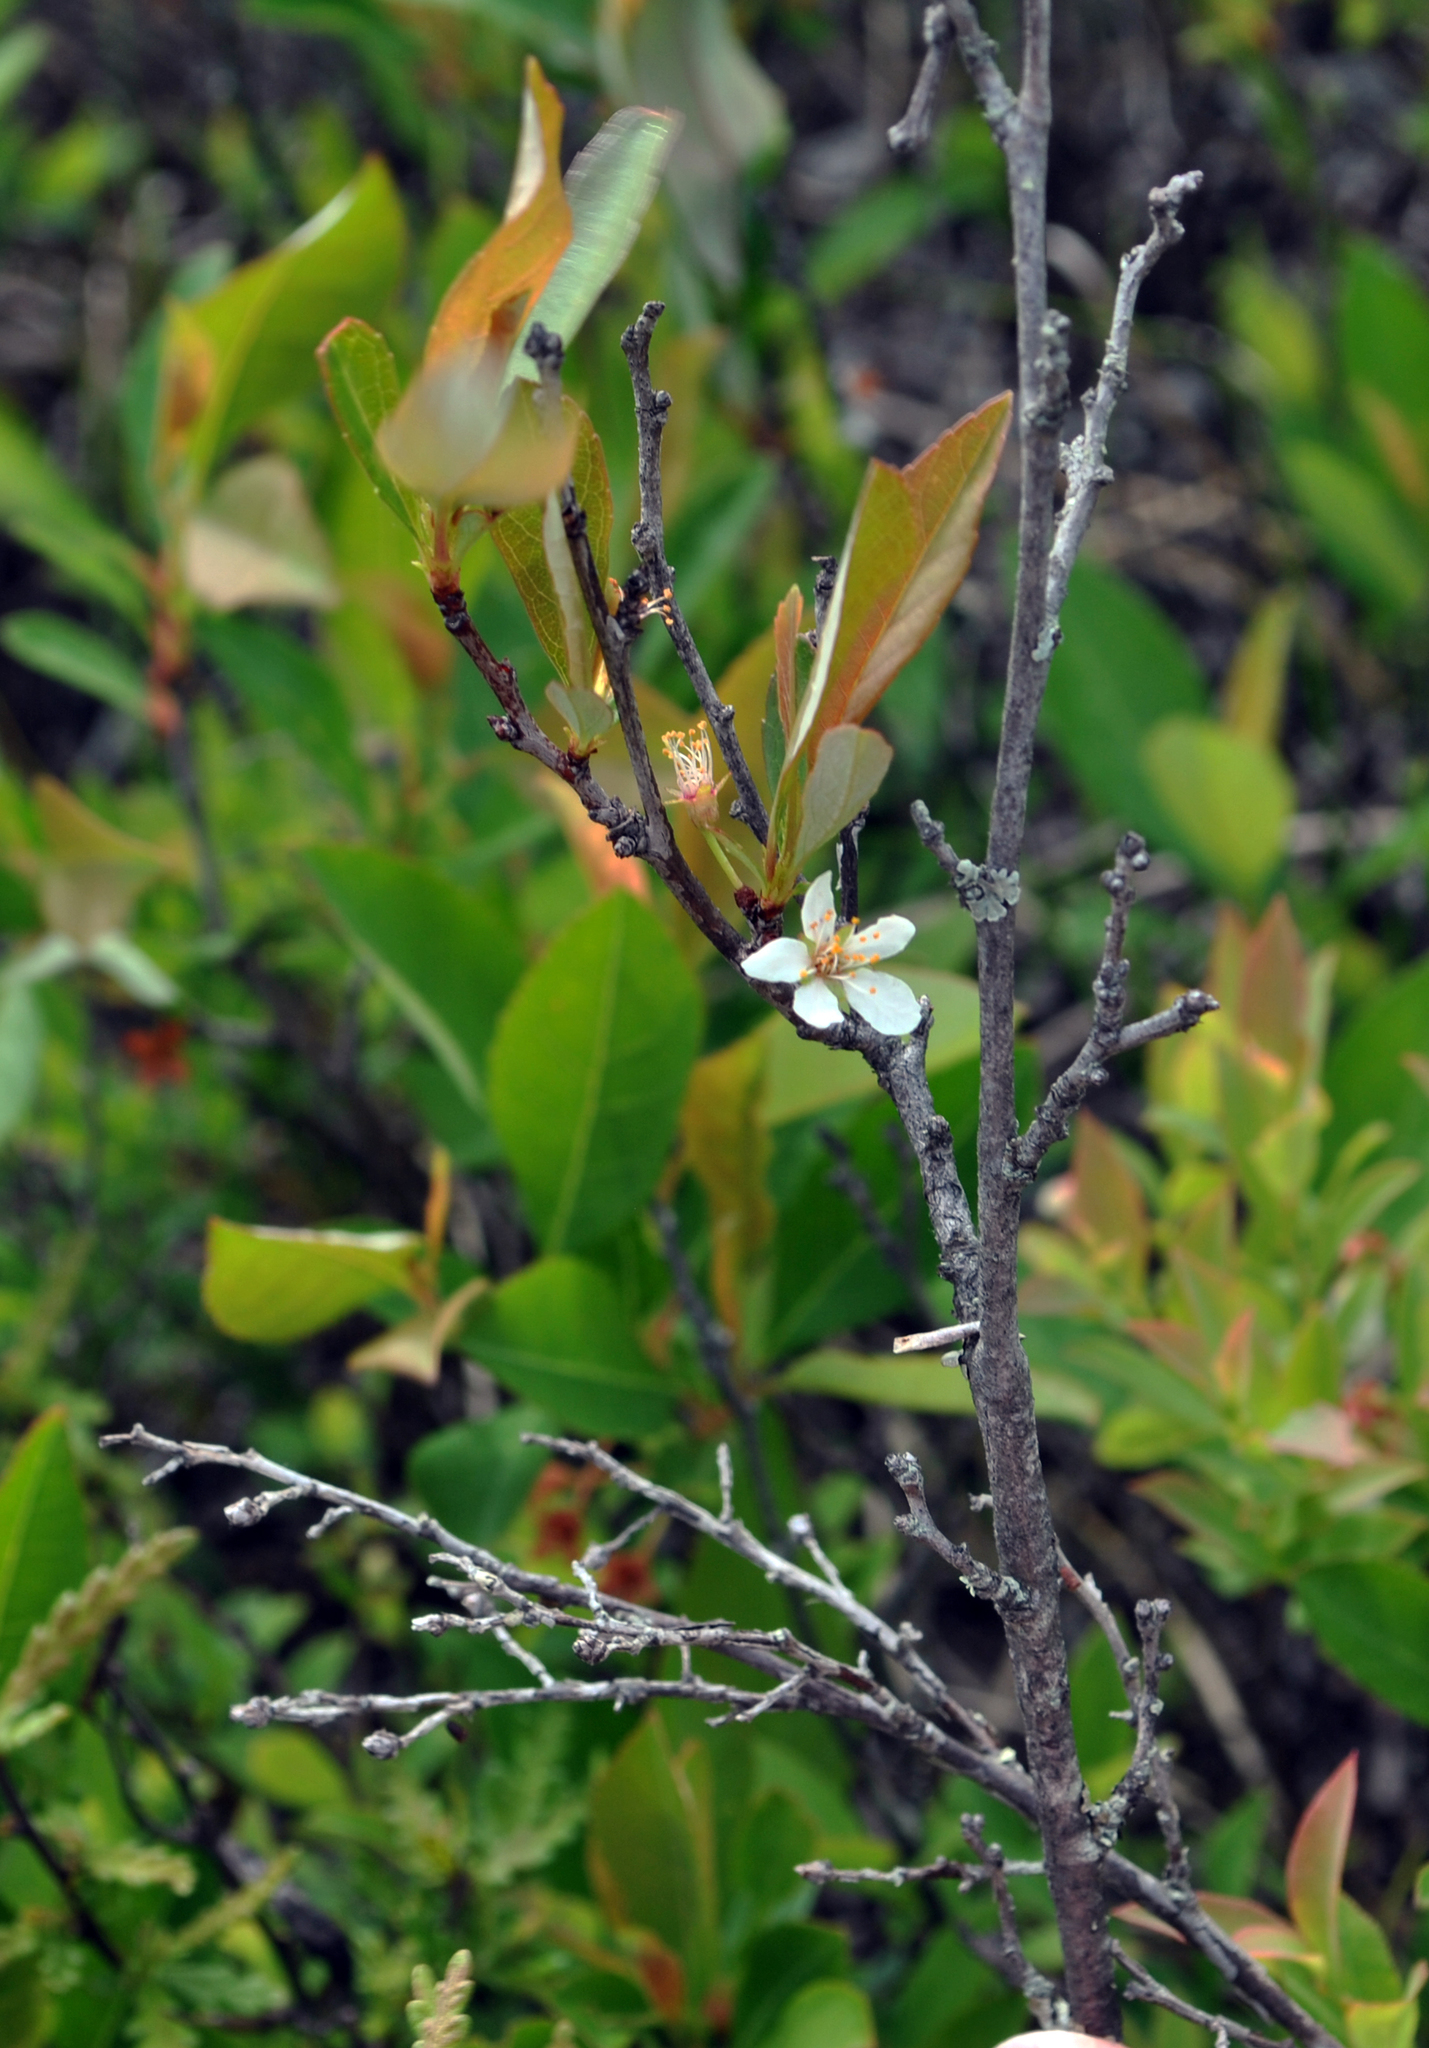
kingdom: Plantae
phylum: Tracheophyta
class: Magnoliopsida
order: Rosales
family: Rosaceae
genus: Prunus
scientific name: Prunus pumila
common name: Dwarf cherry
